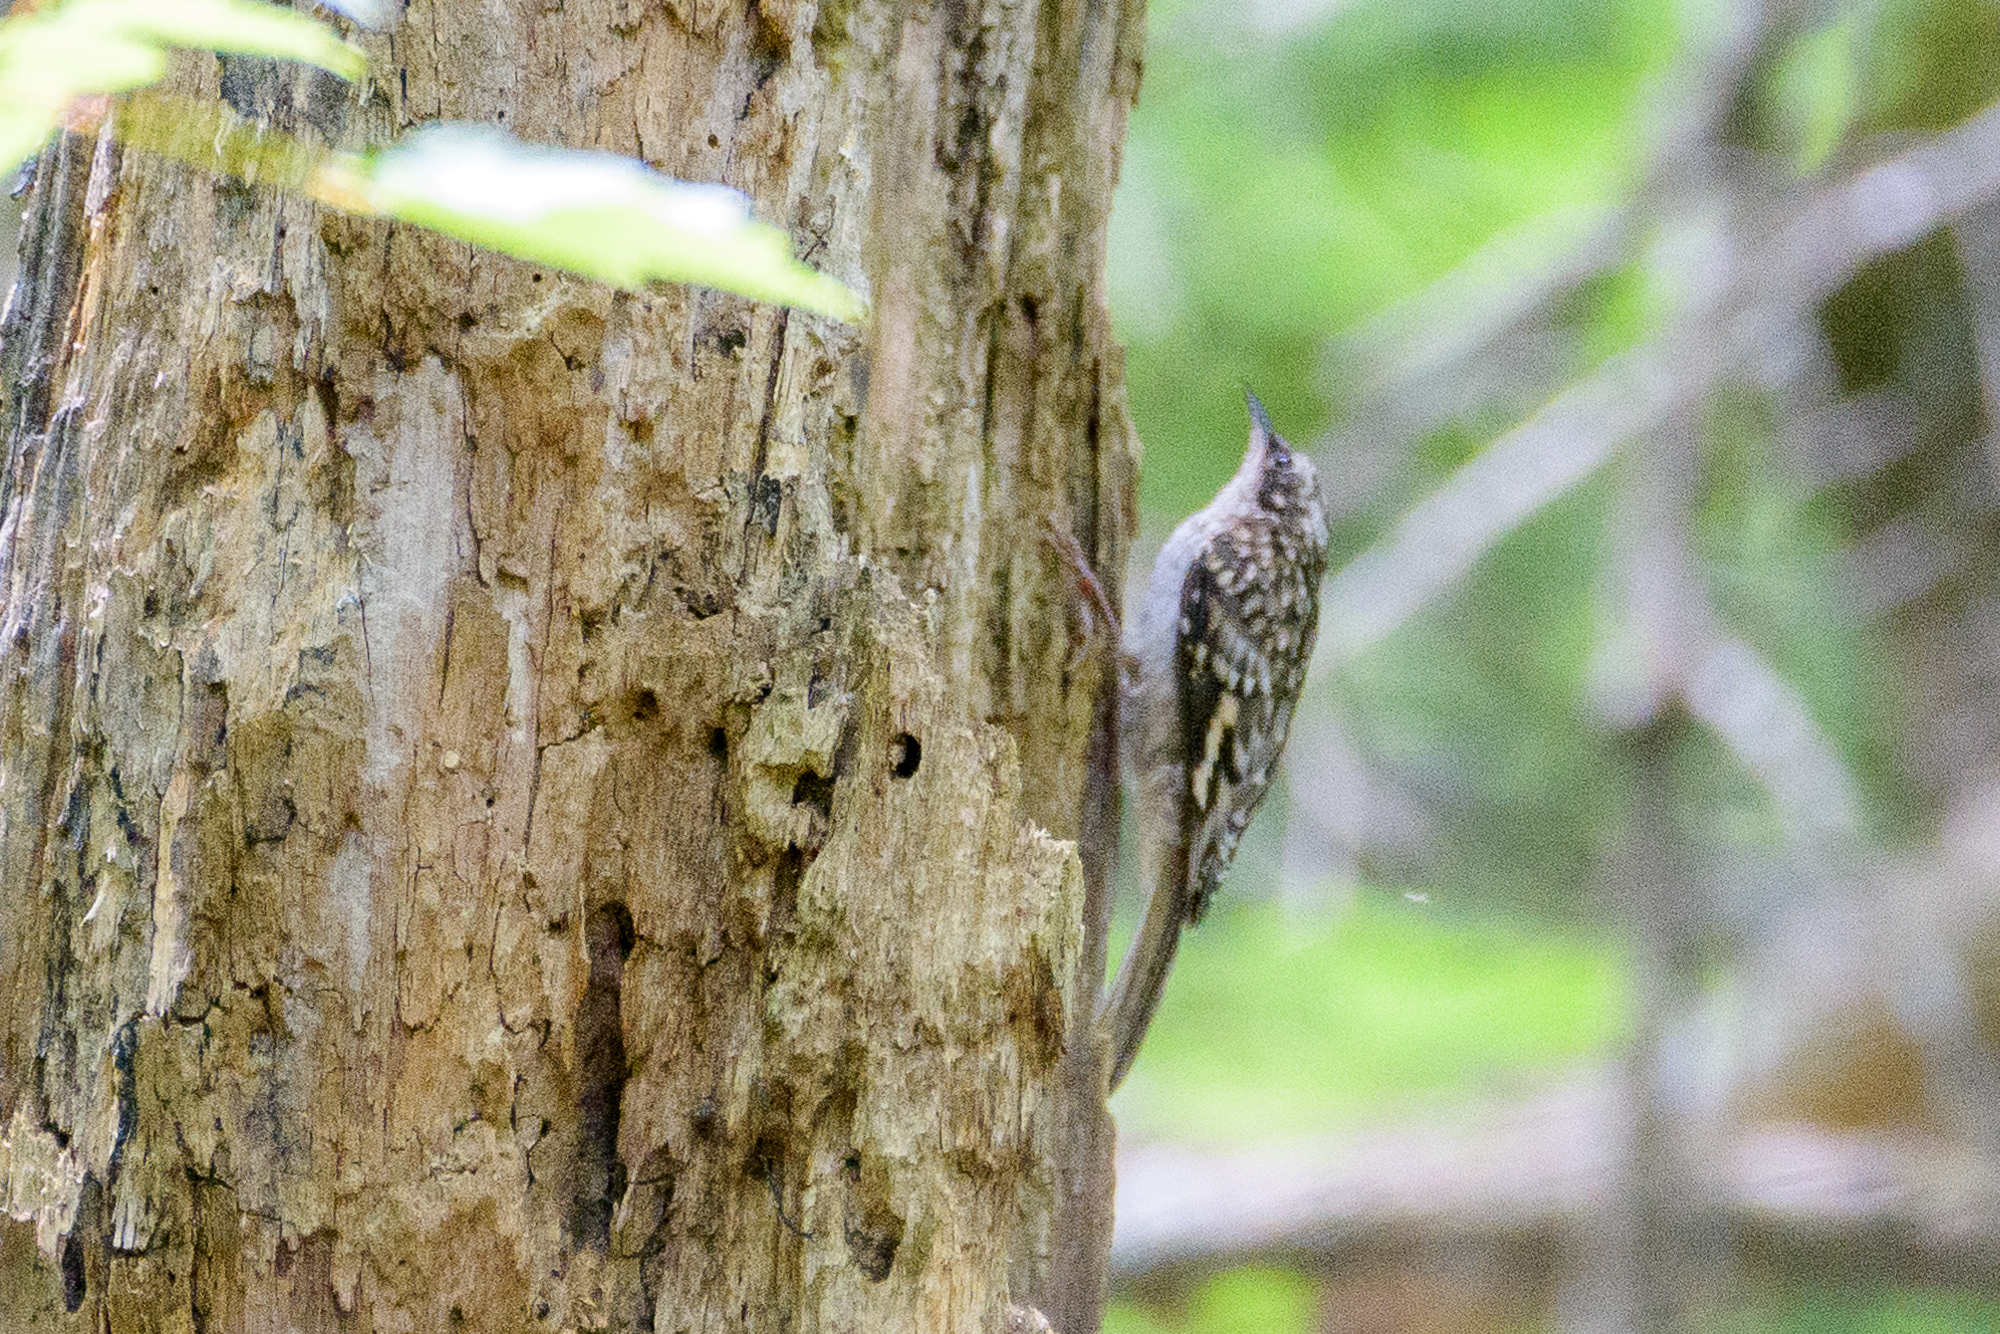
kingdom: Animalia
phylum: Chordata
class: Aves
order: Passeriformes
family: Certhiidae
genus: Certhia
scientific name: Certhia americana
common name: Brown creeper
